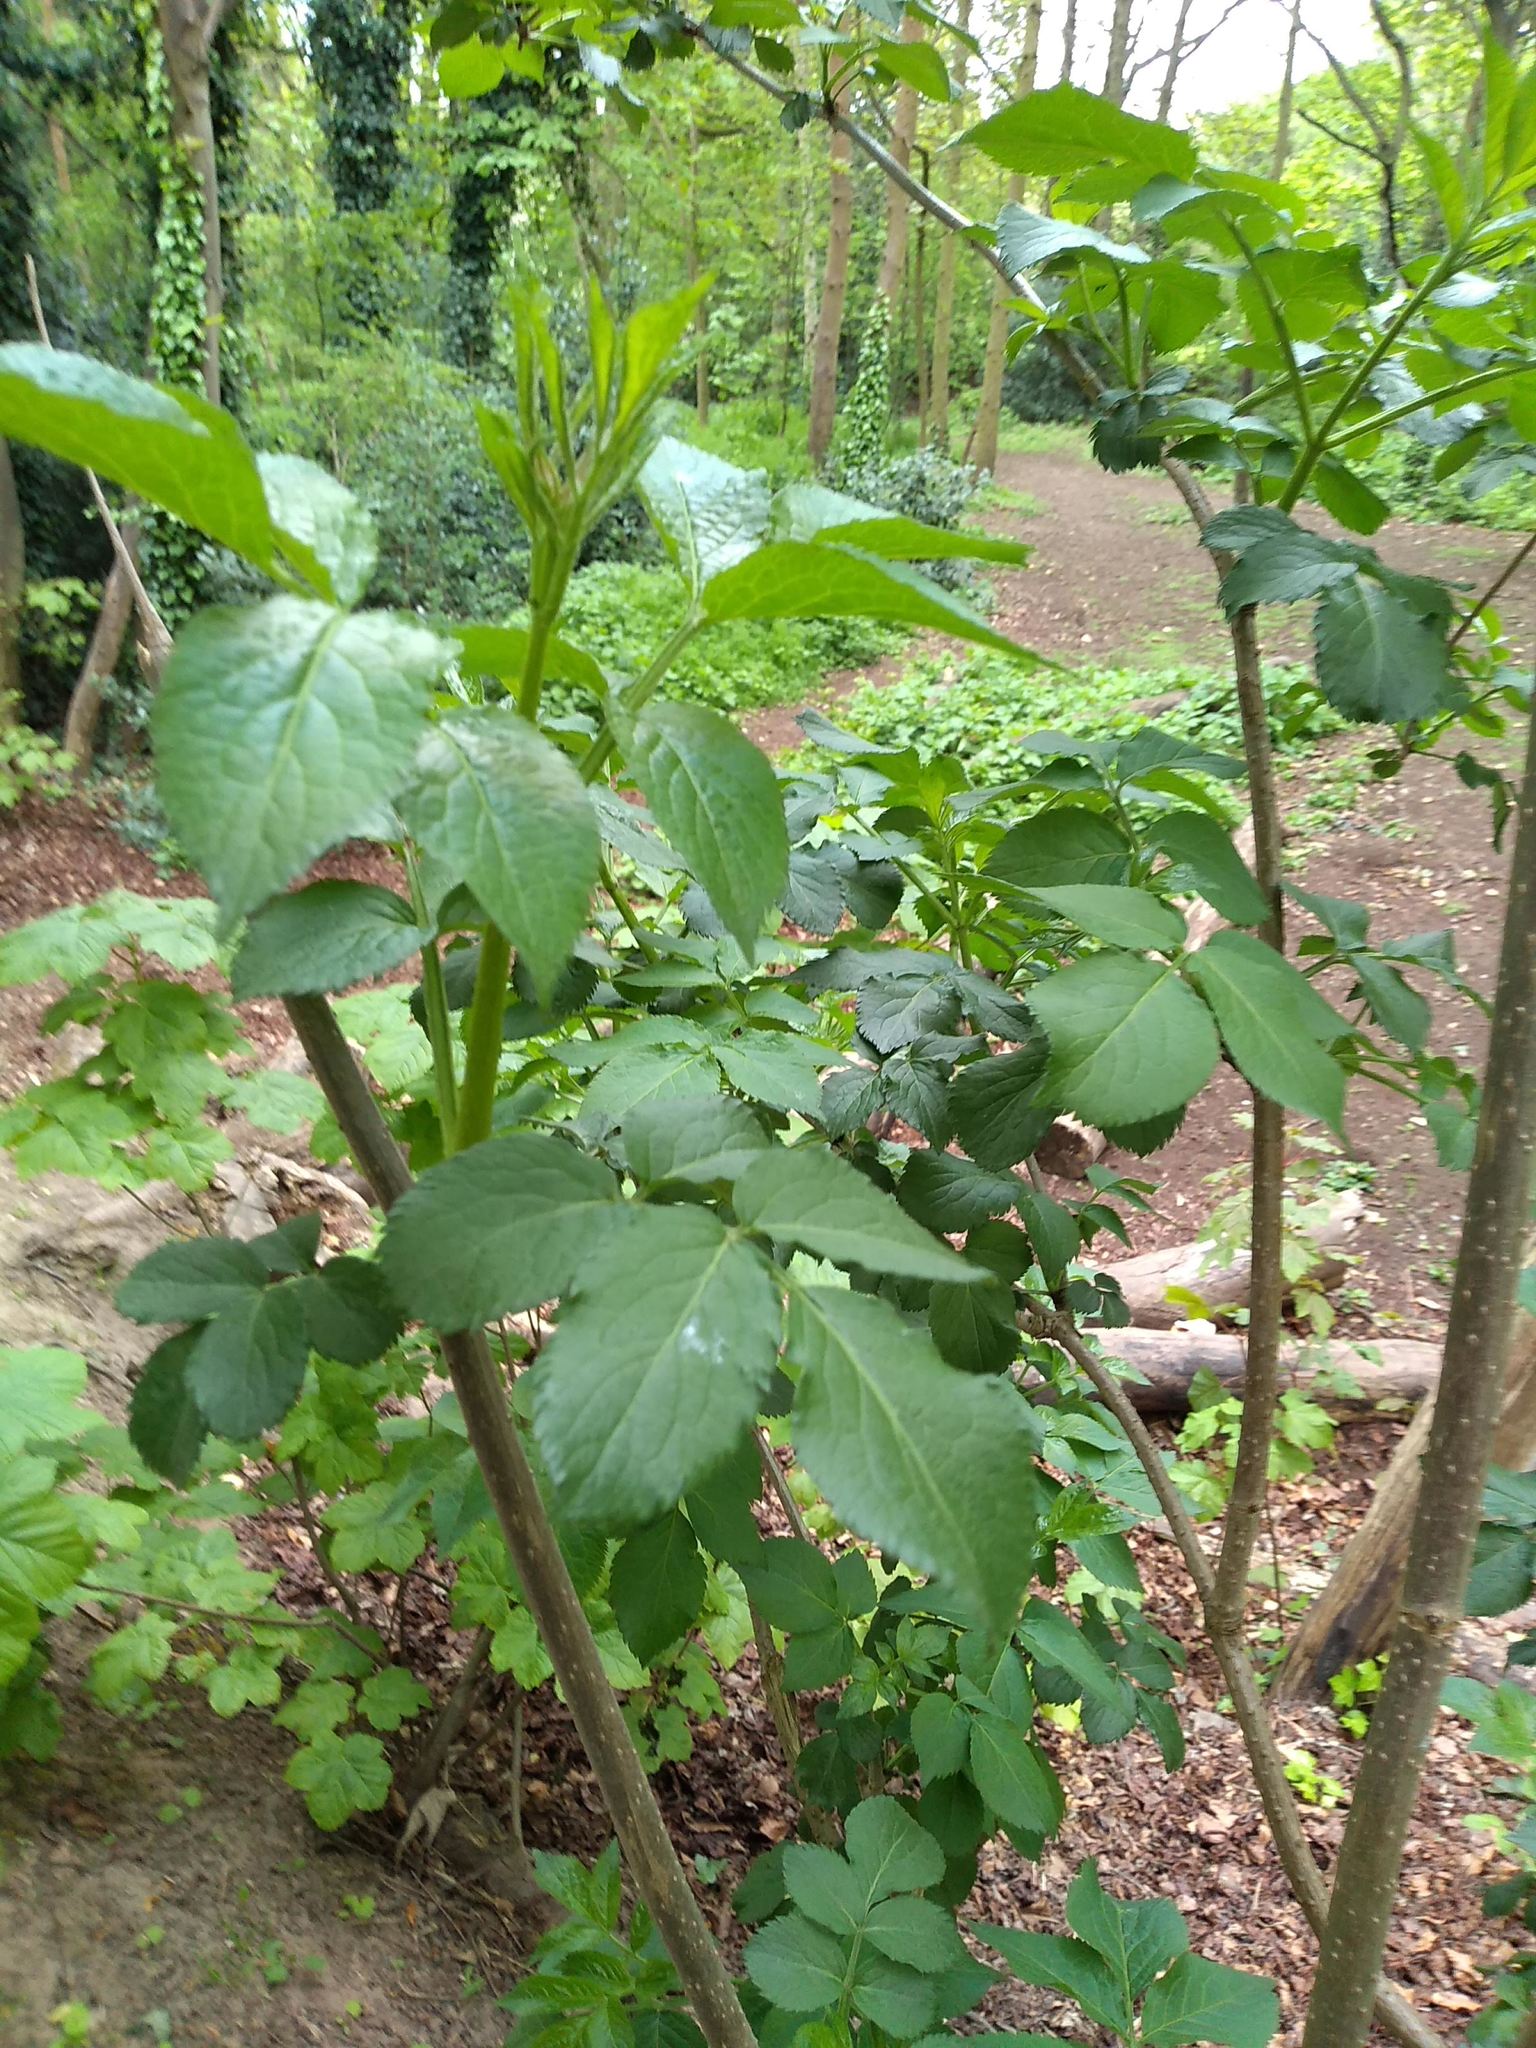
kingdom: Plantae
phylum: Tracheophyta
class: Magnoliopsida
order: Dipsacales
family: Viburnaceae
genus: Sambucus
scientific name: Sambucus nigra
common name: Elder
